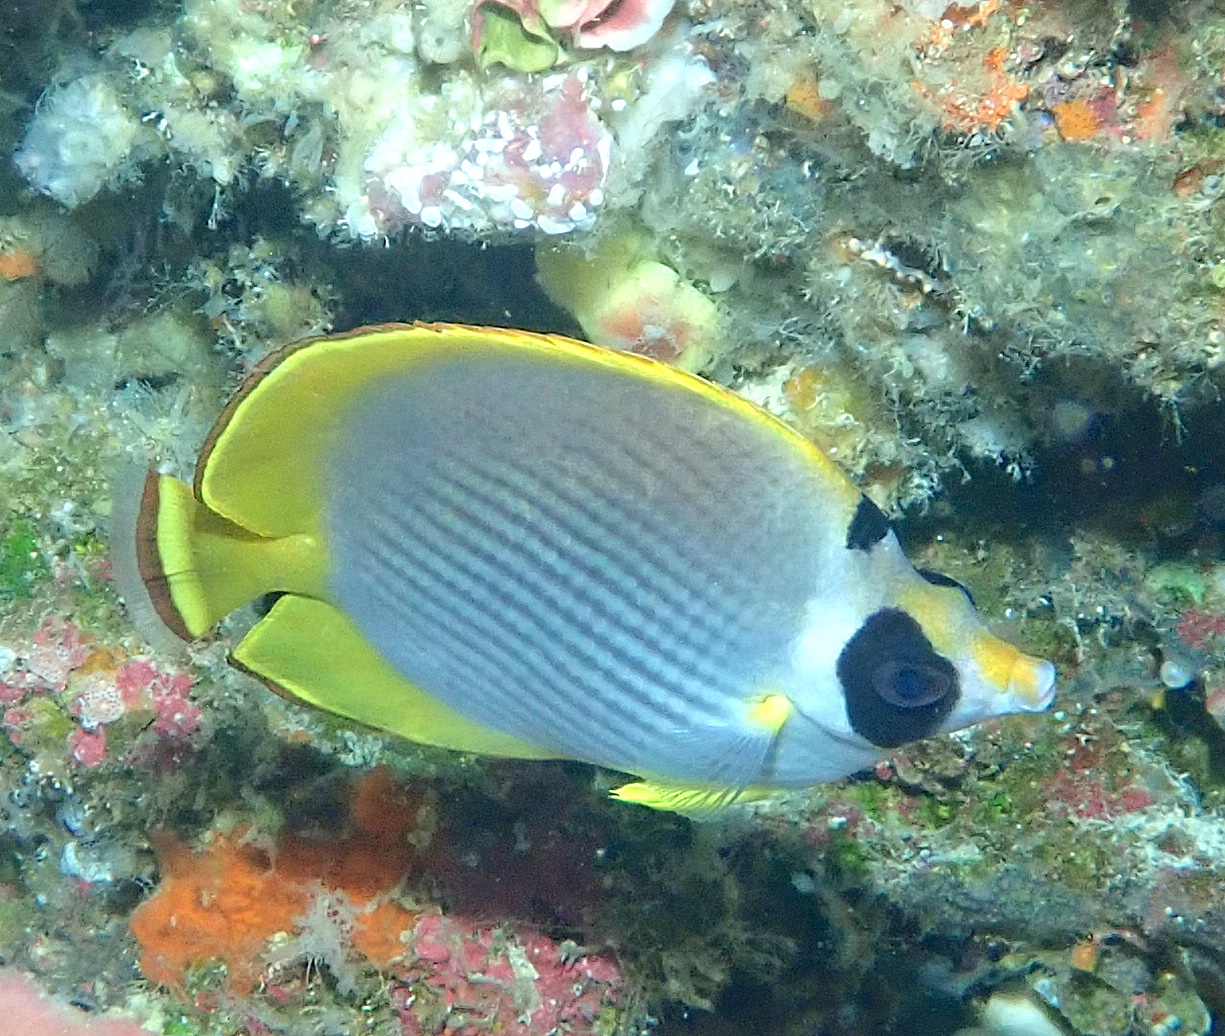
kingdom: Animalia
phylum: Chordata
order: Perciformes
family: Chaetodontidae
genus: Chaetodon
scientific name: Chaetodon adiergastos
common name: Eye-patch butterflyfish
